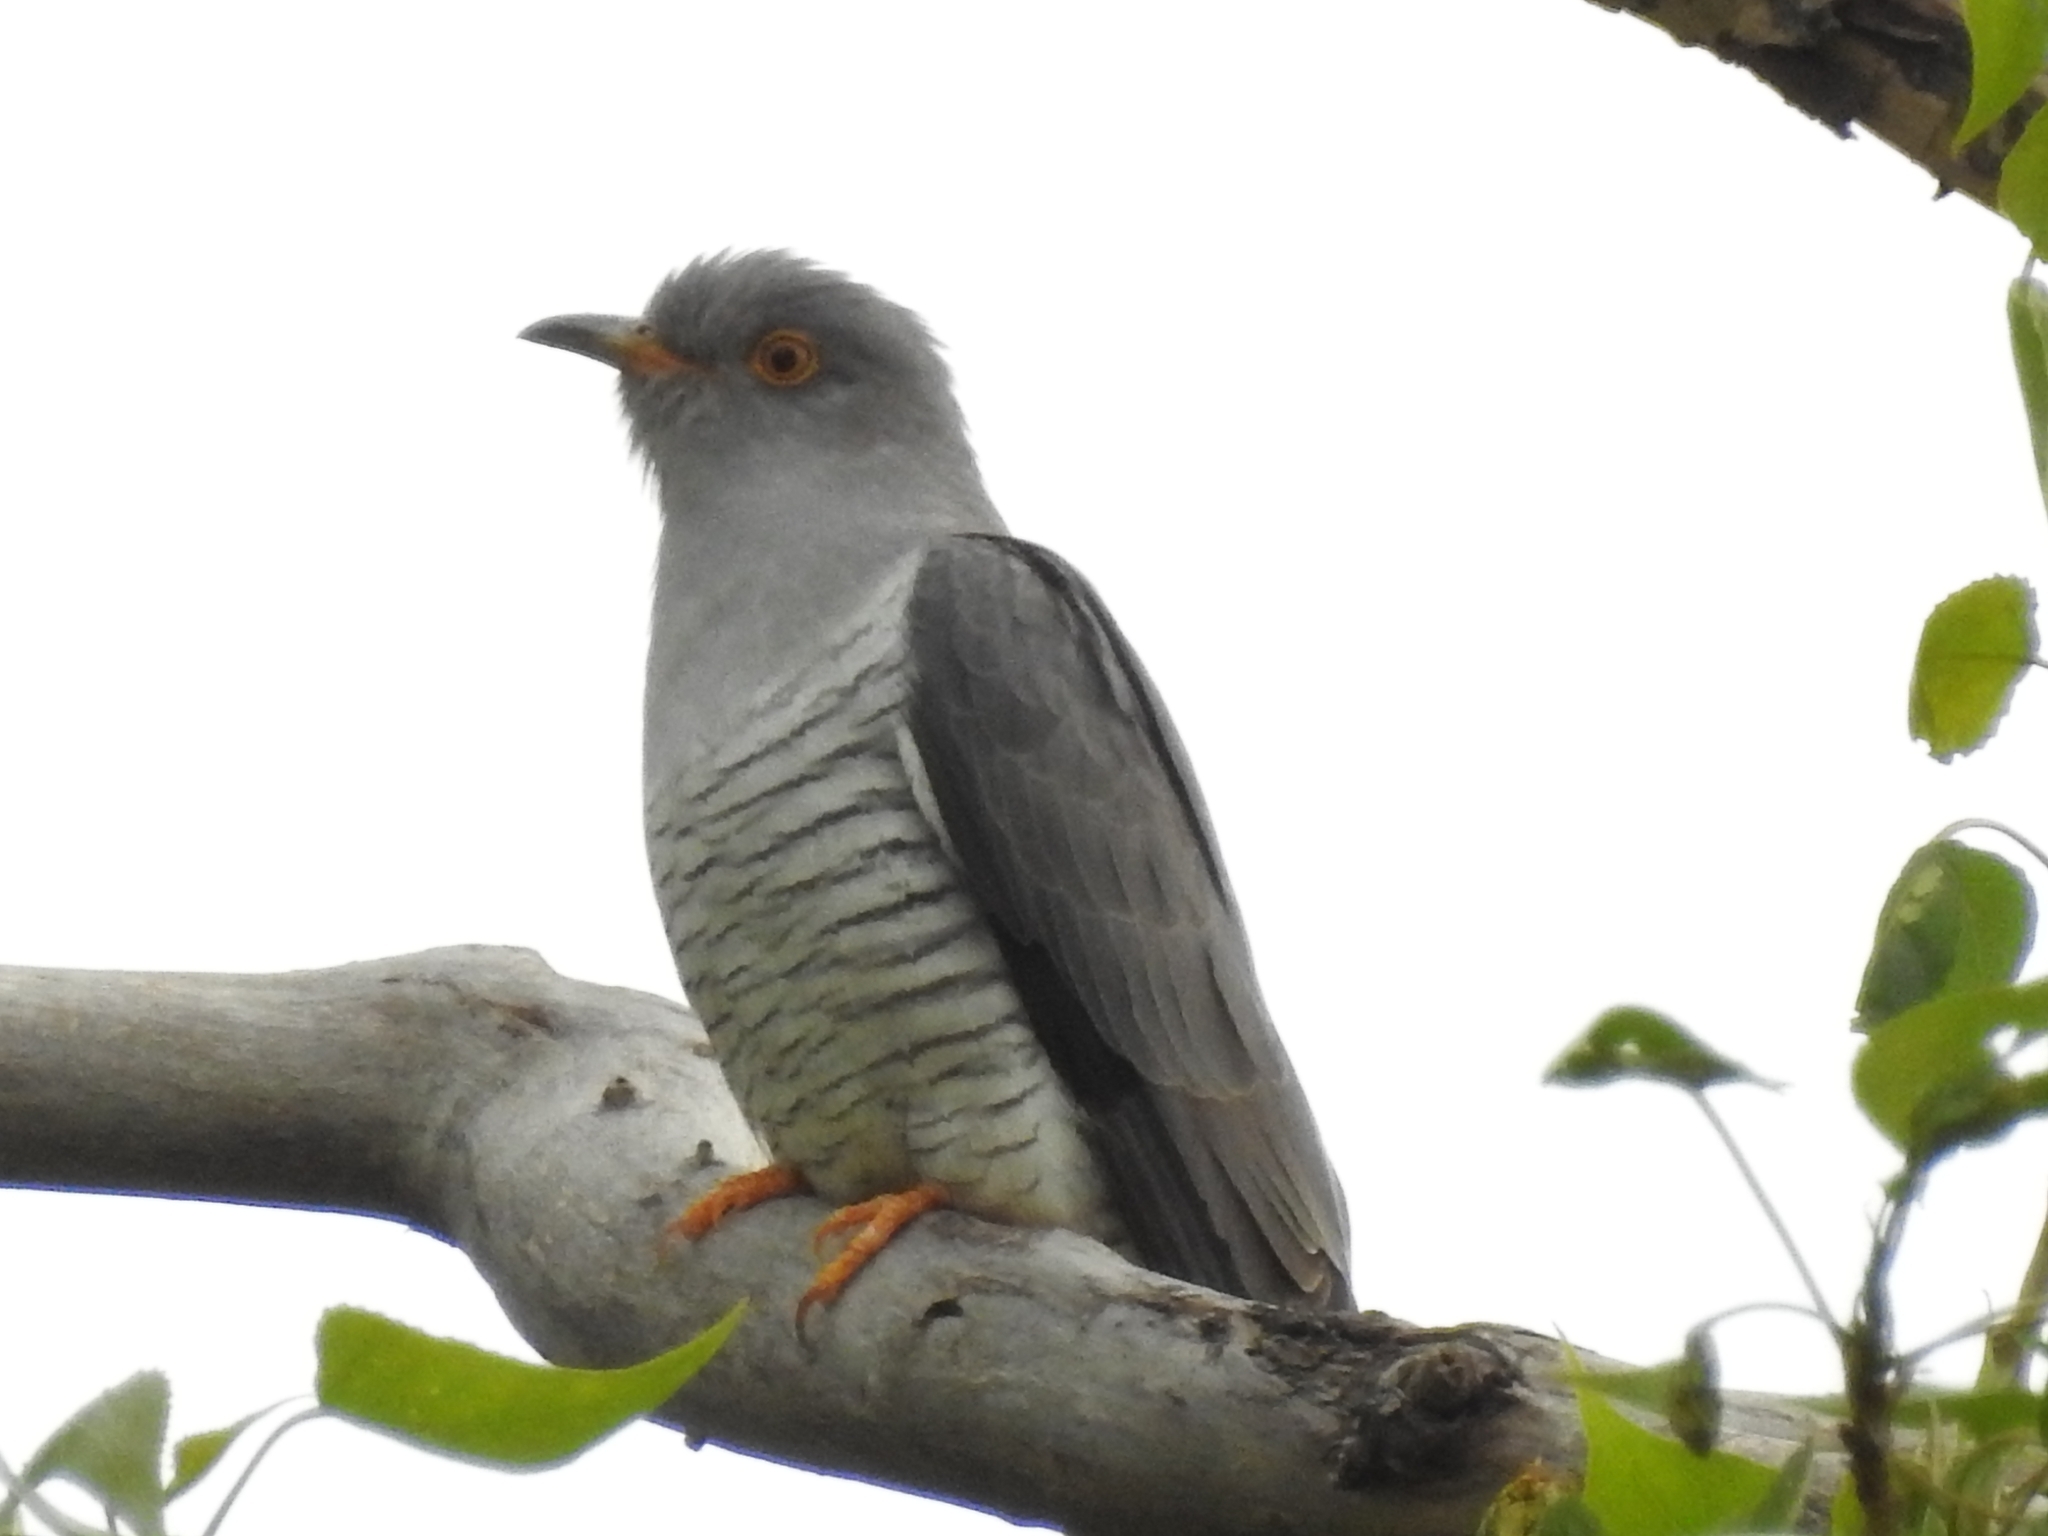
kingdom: Animalia
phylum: Chordata
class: Aves
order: Cuculiformes
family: Cuculidae
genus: Cuculus
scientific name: Cuculus canorus
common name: Common cuckoo
